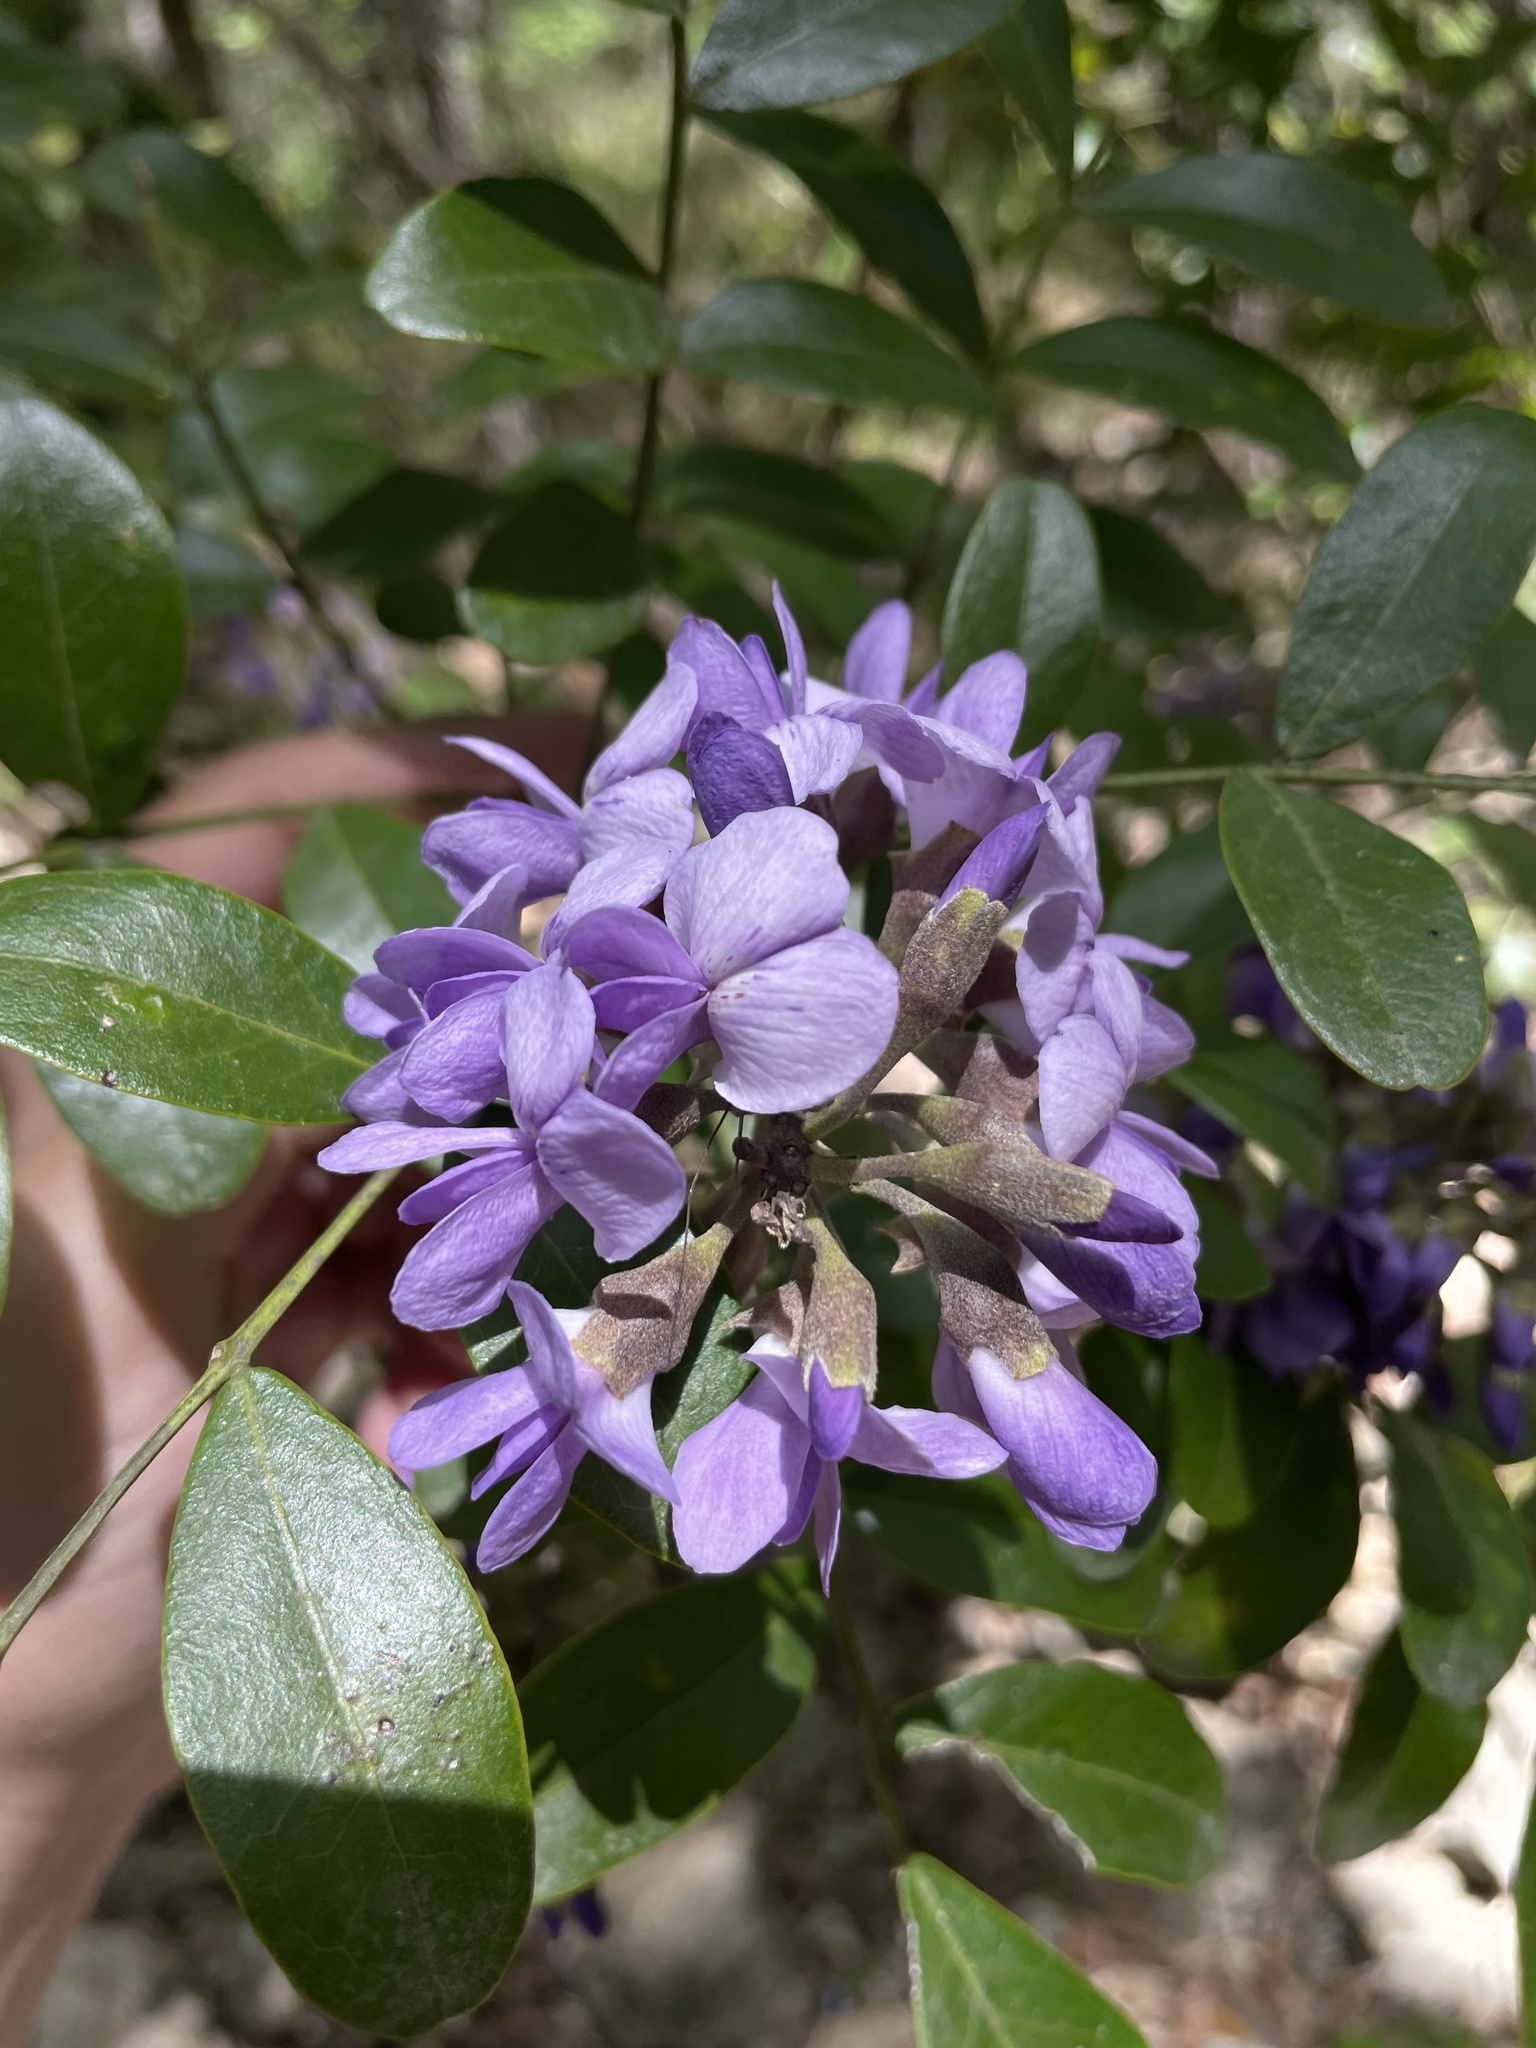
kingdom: Plantae
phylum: Tracheophyta
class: Magnoliopsida
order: Fabales
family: Fabaceae
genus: Dermatophyllum
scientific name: Dermatophyllum secundiflorum
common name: Texas-mountain-laurel
